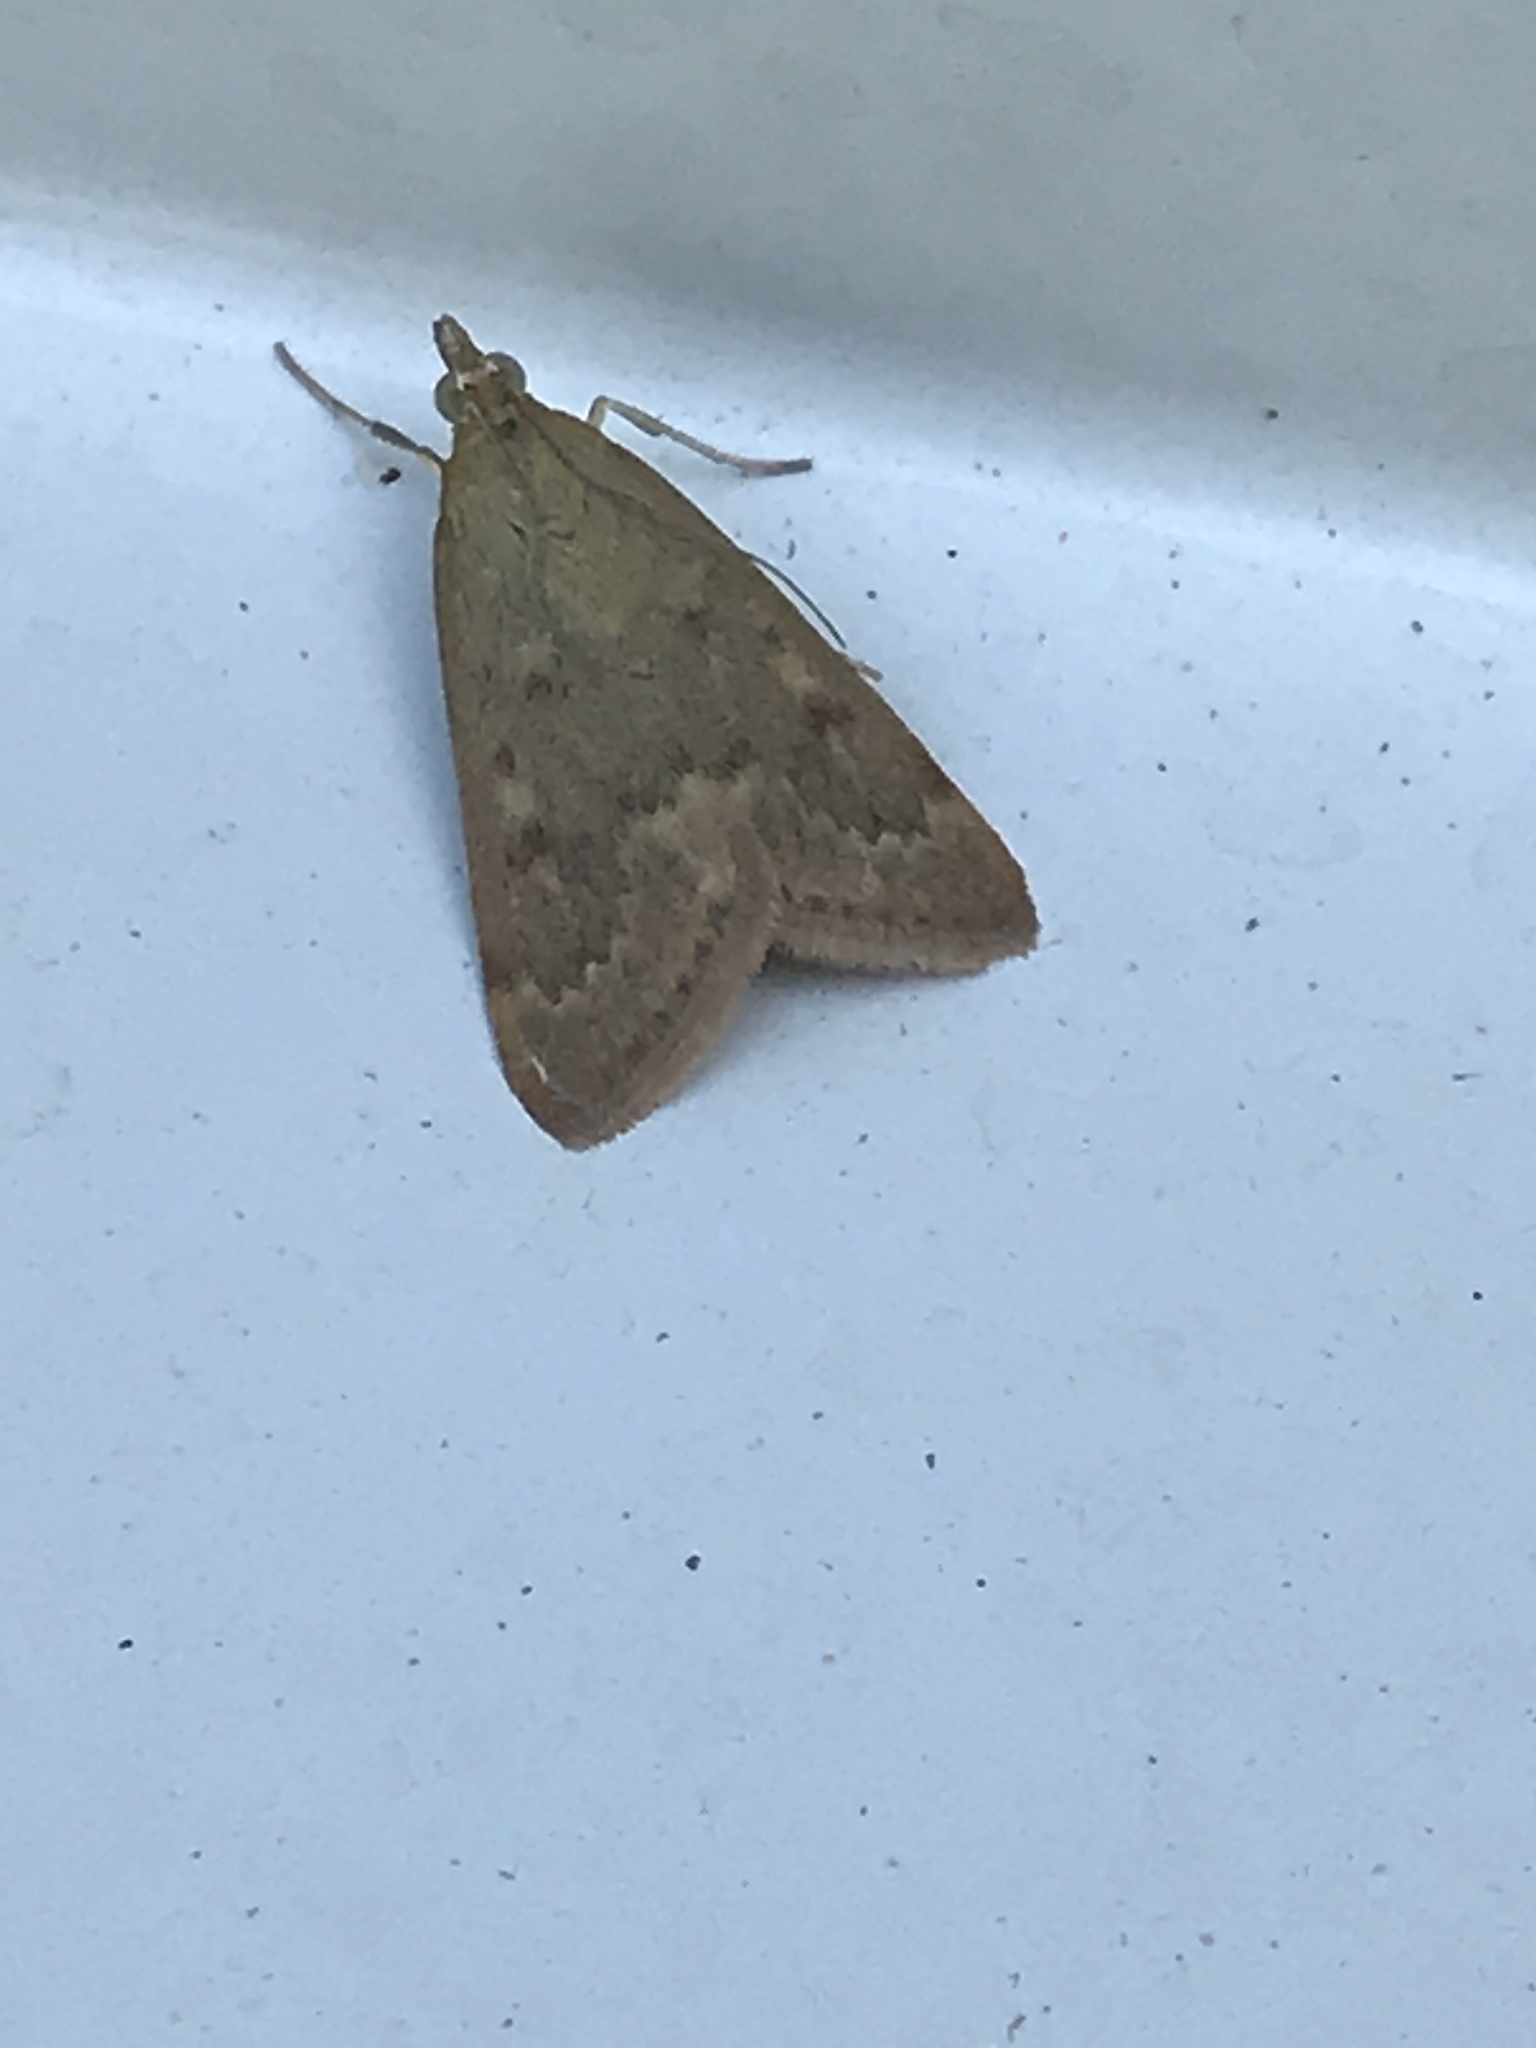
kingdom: Animalia
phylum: Arthropoda
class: Insecta
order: Lepidoptera
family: Crambidae
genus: Achyra
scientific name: Achyra rantalis
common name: Garden webworm
